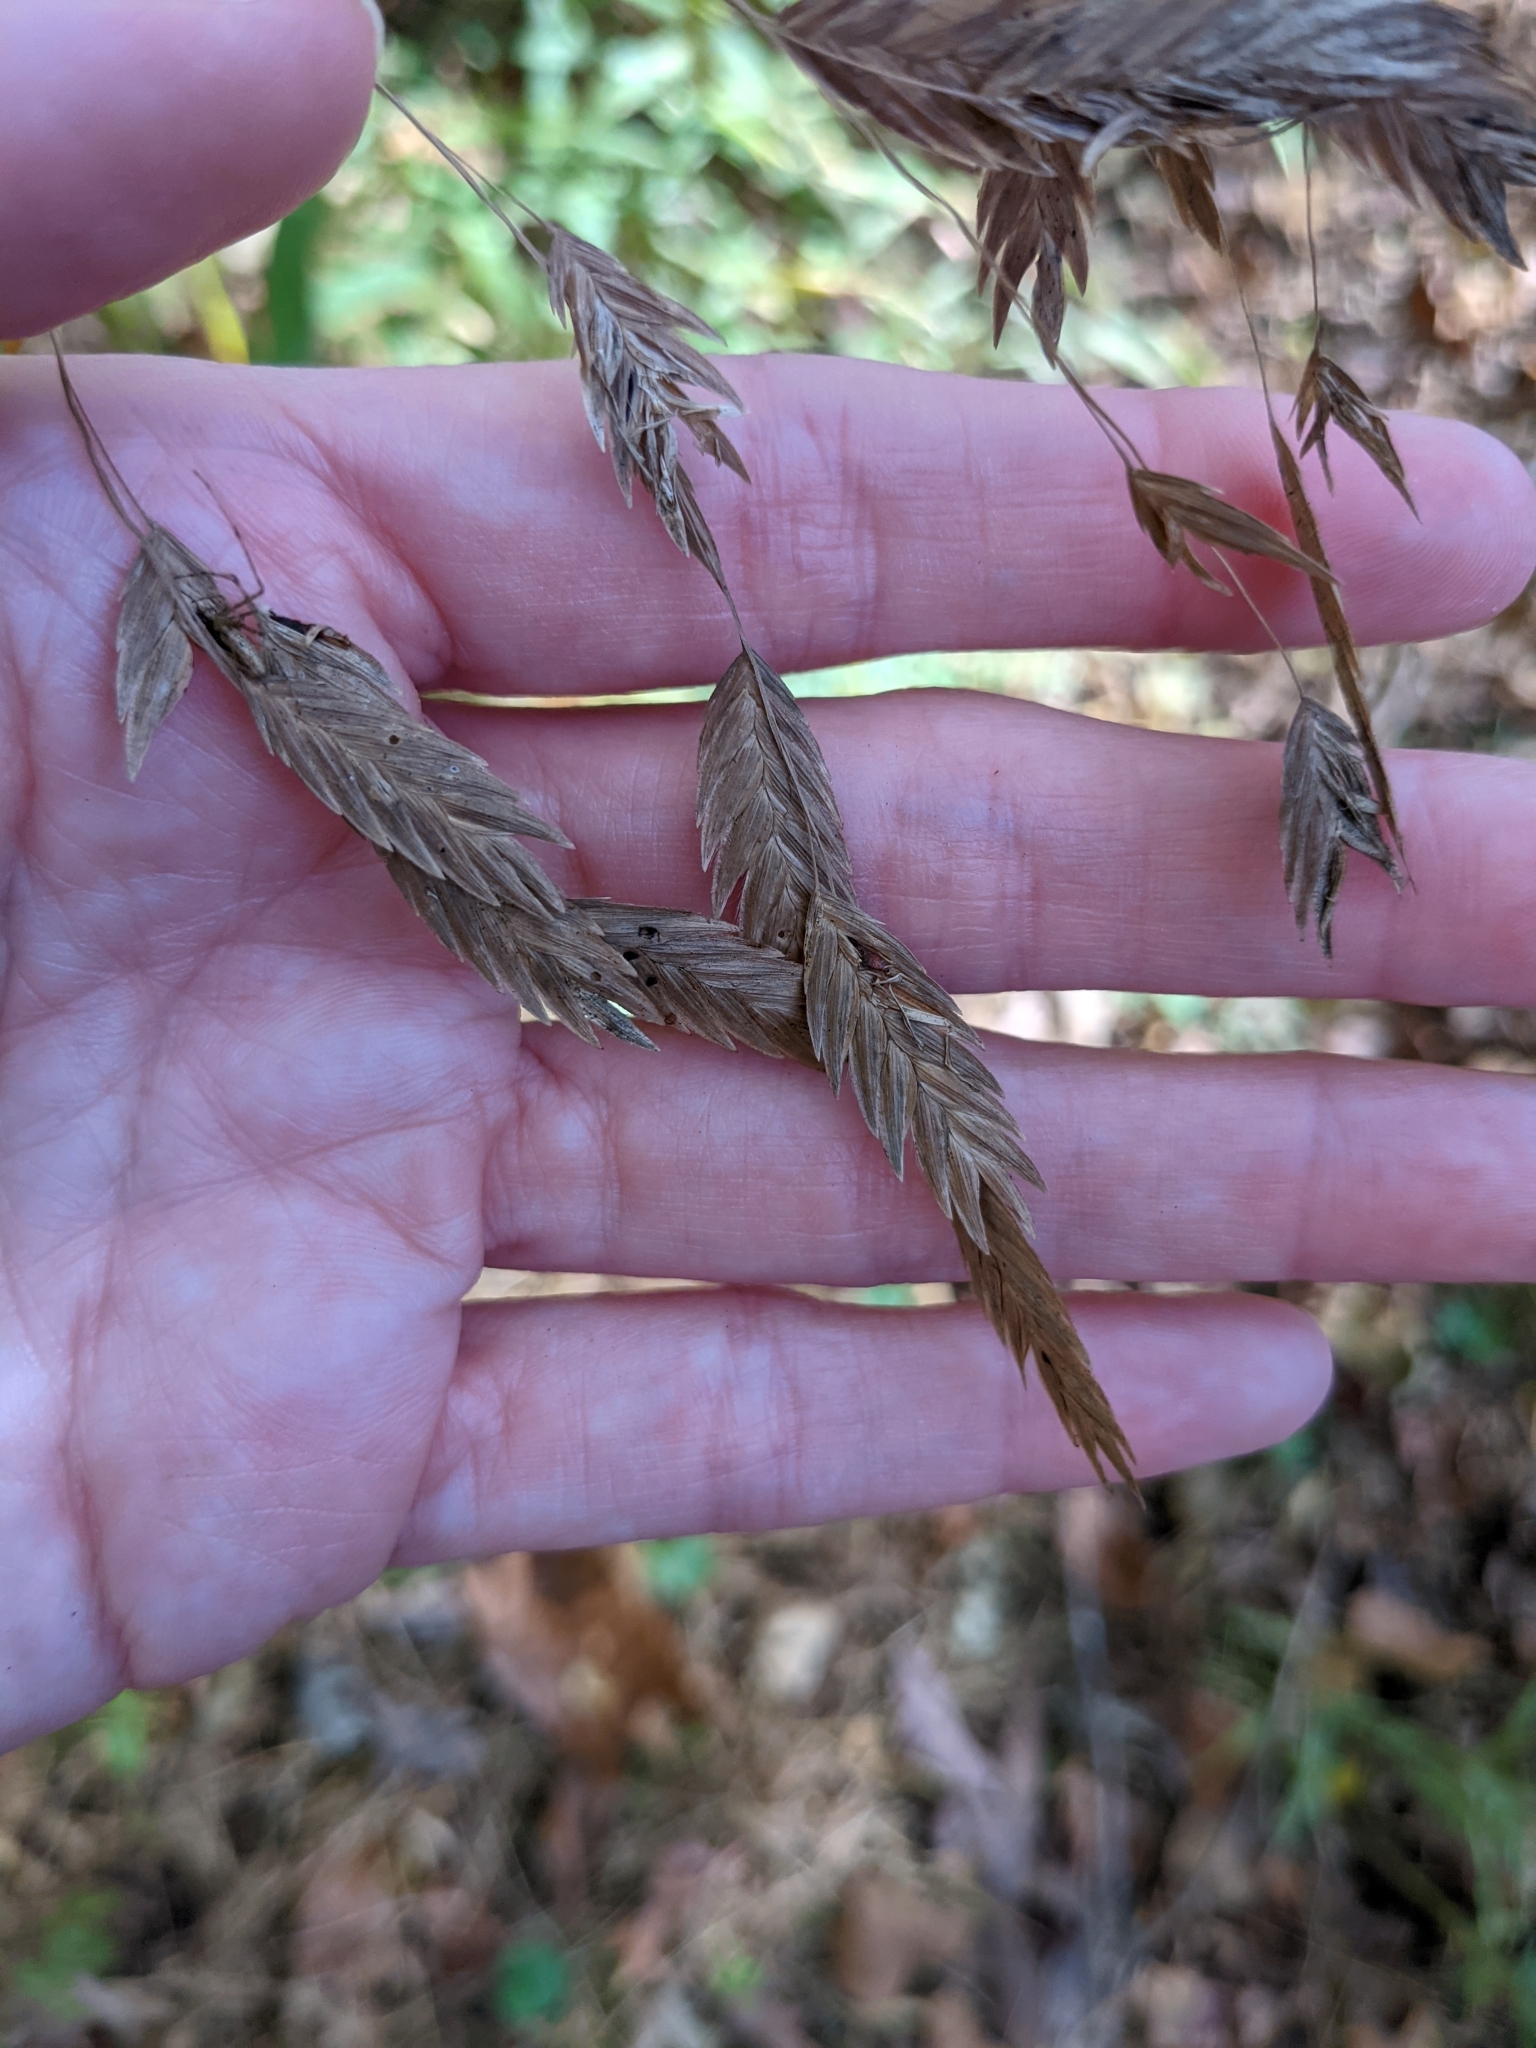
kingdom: Plantae
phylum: Tracheophyta
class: Liliopsida
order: Poales
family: Poaceae
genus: Chasmanthium
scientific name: Chasmanthium latifolium
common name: Broad-leaved chasmanthium
